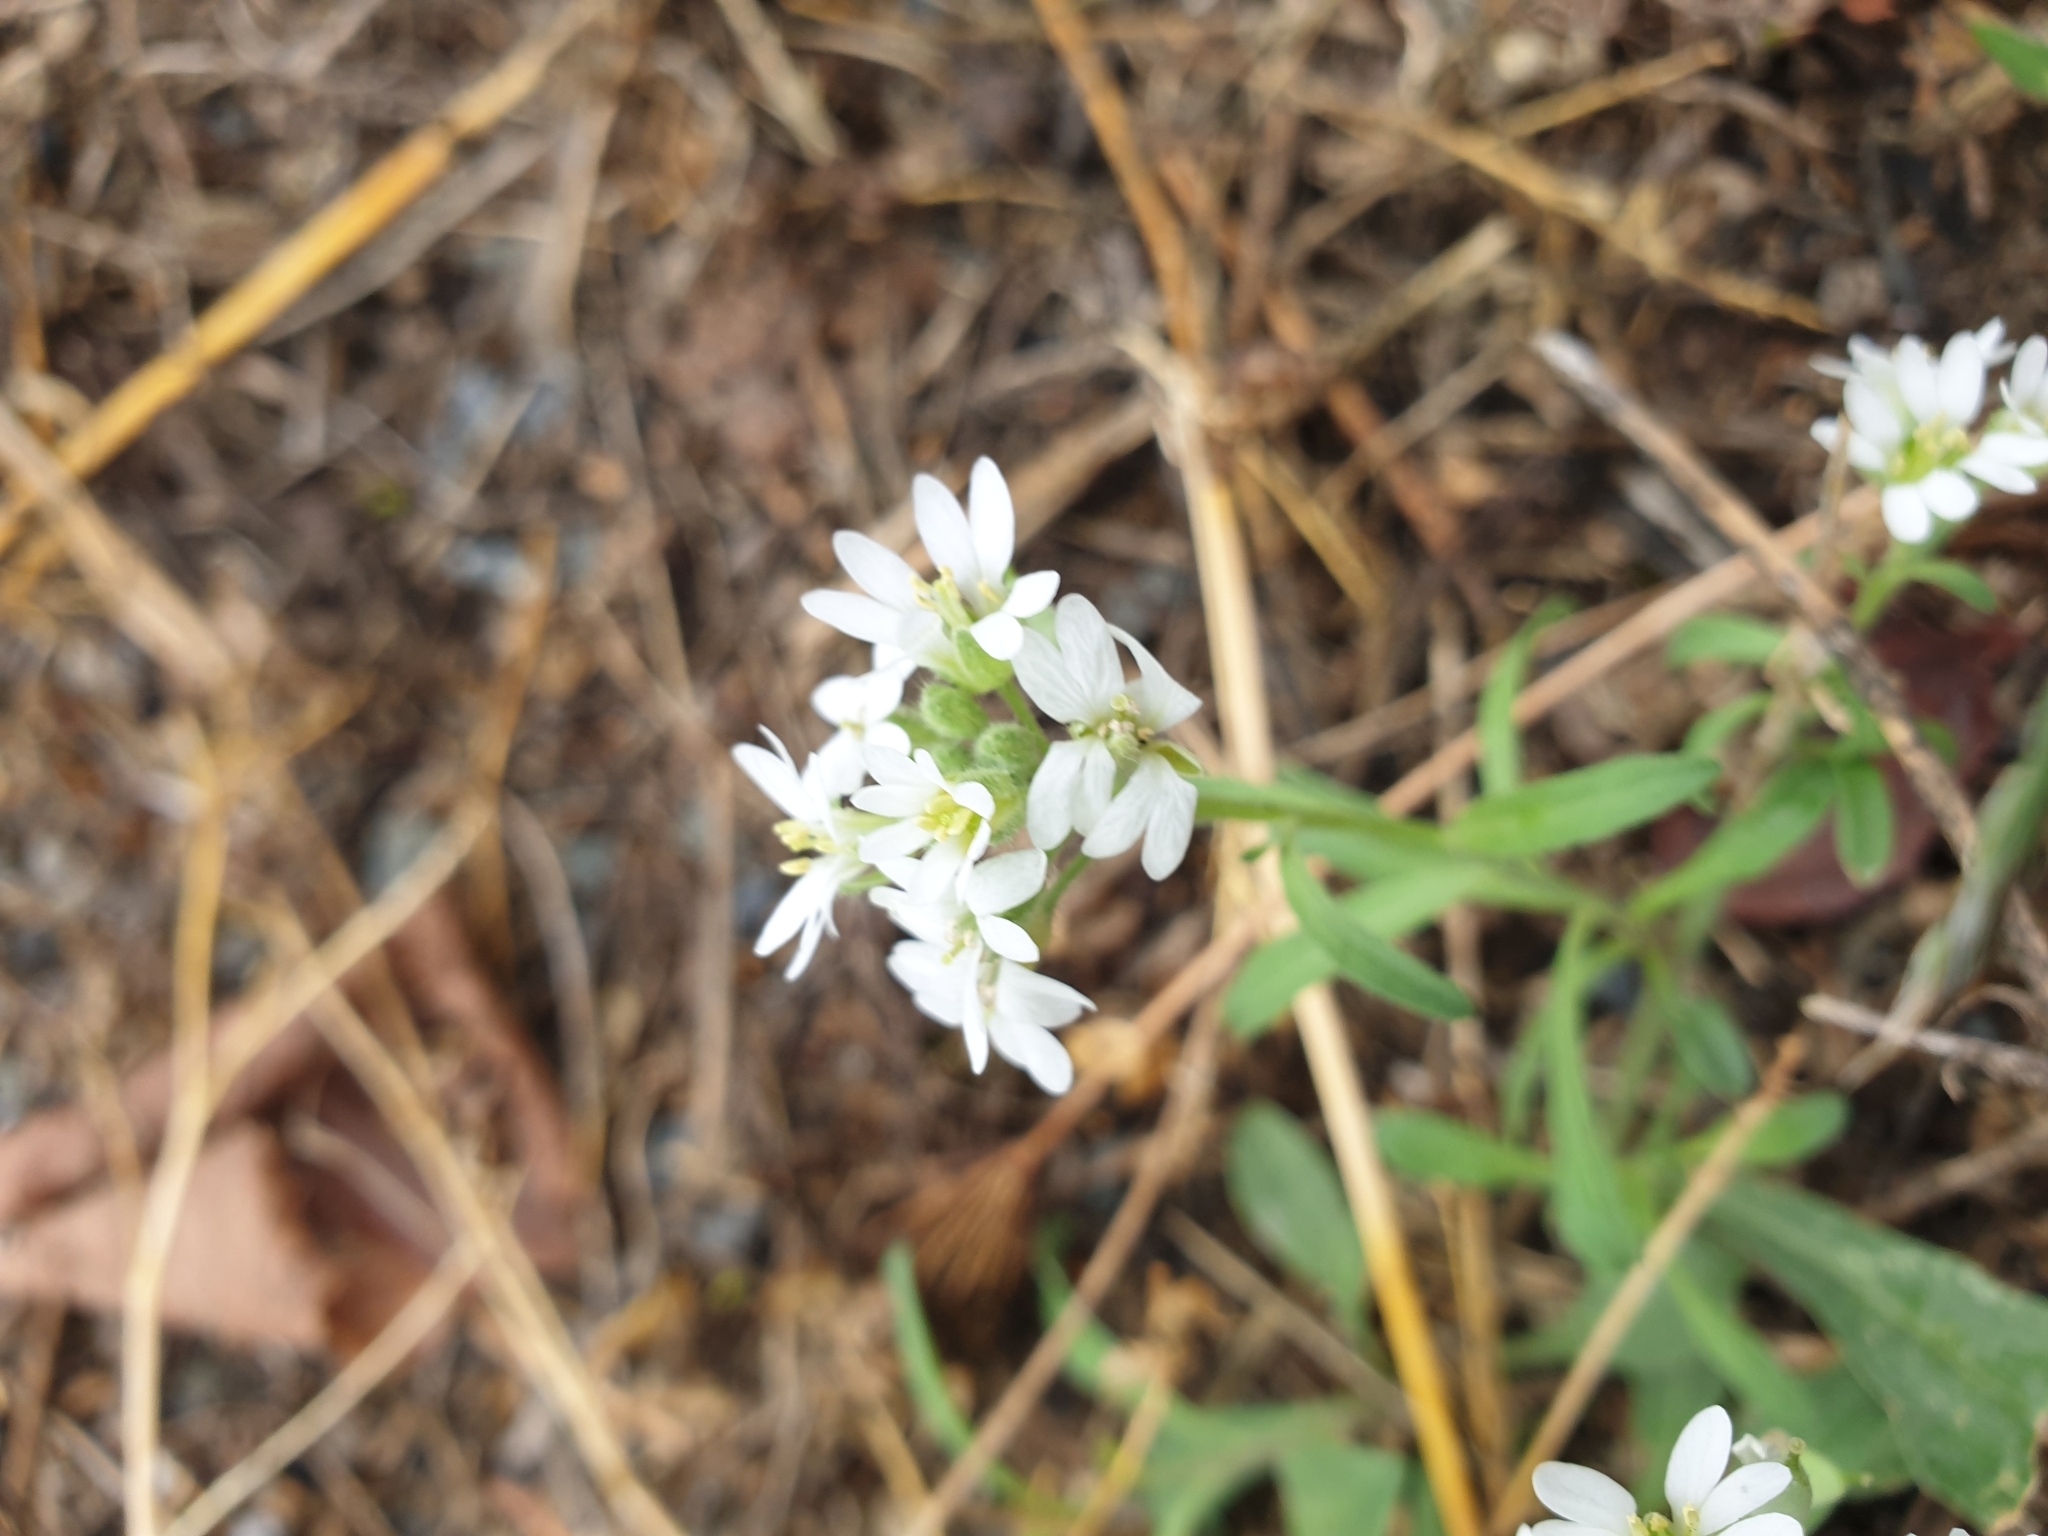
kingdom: Plantae
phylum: Tracheophyta
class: Magnoliopsida
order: Brassicales
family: Brassicaceae
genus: Berteroa
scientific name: Berteroa incana
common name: Hoary alison
